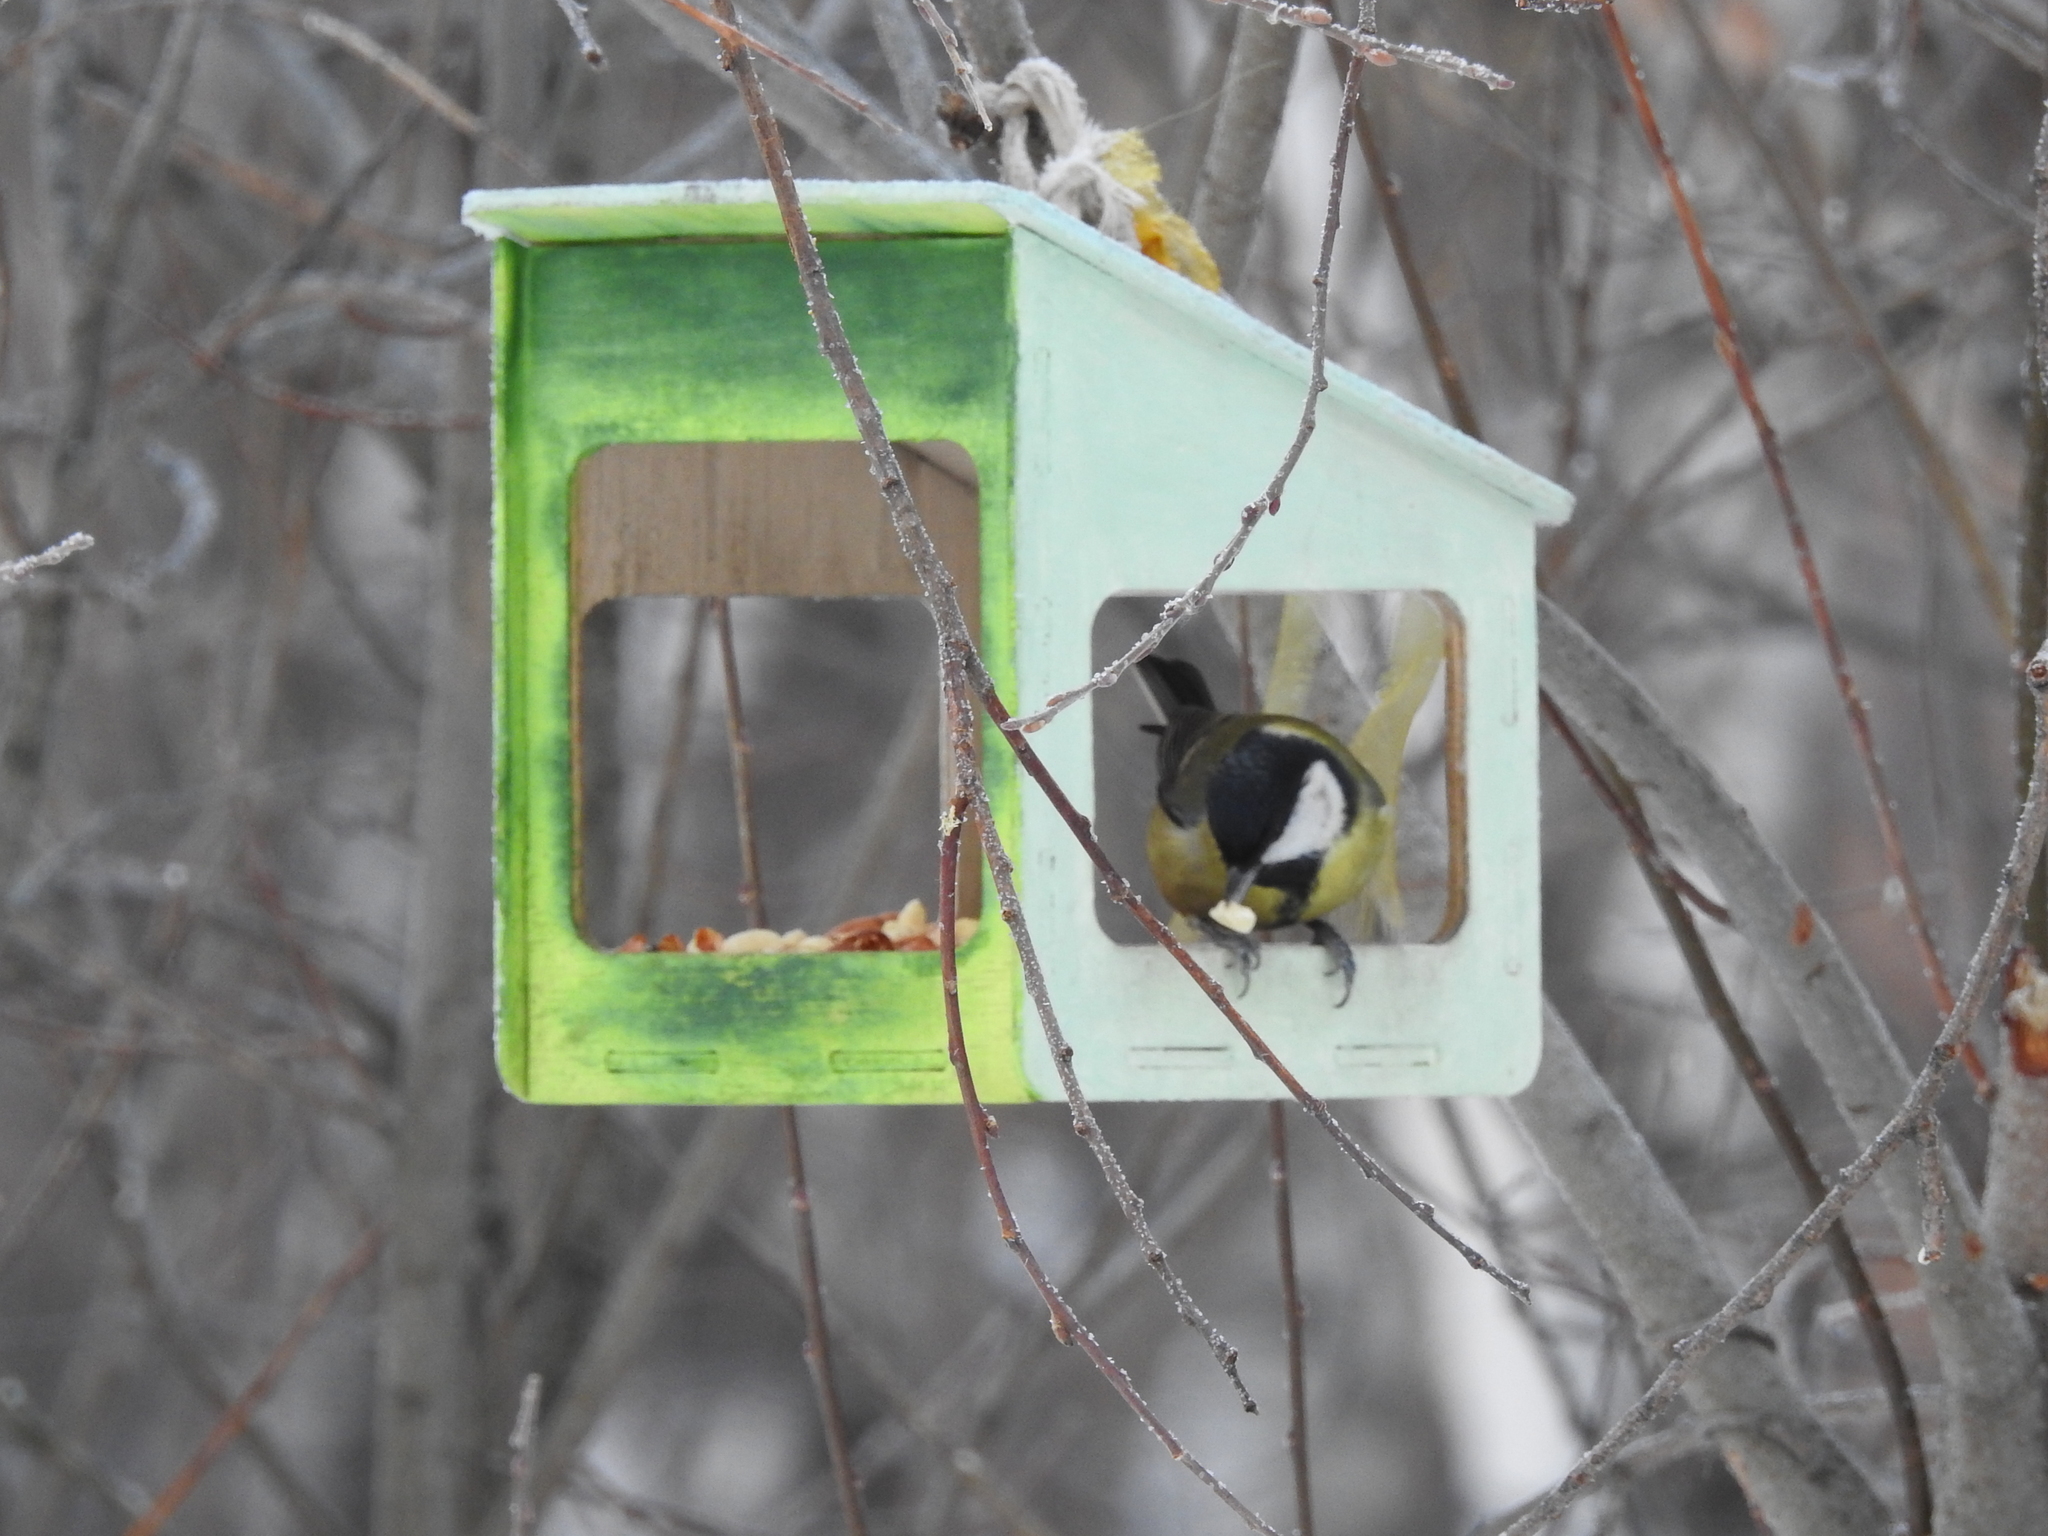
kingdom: Animalia
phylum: Chordata
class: Aves
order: Passeriformes
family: Paridae
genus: Parus
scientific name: Parus major
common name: Great tit
